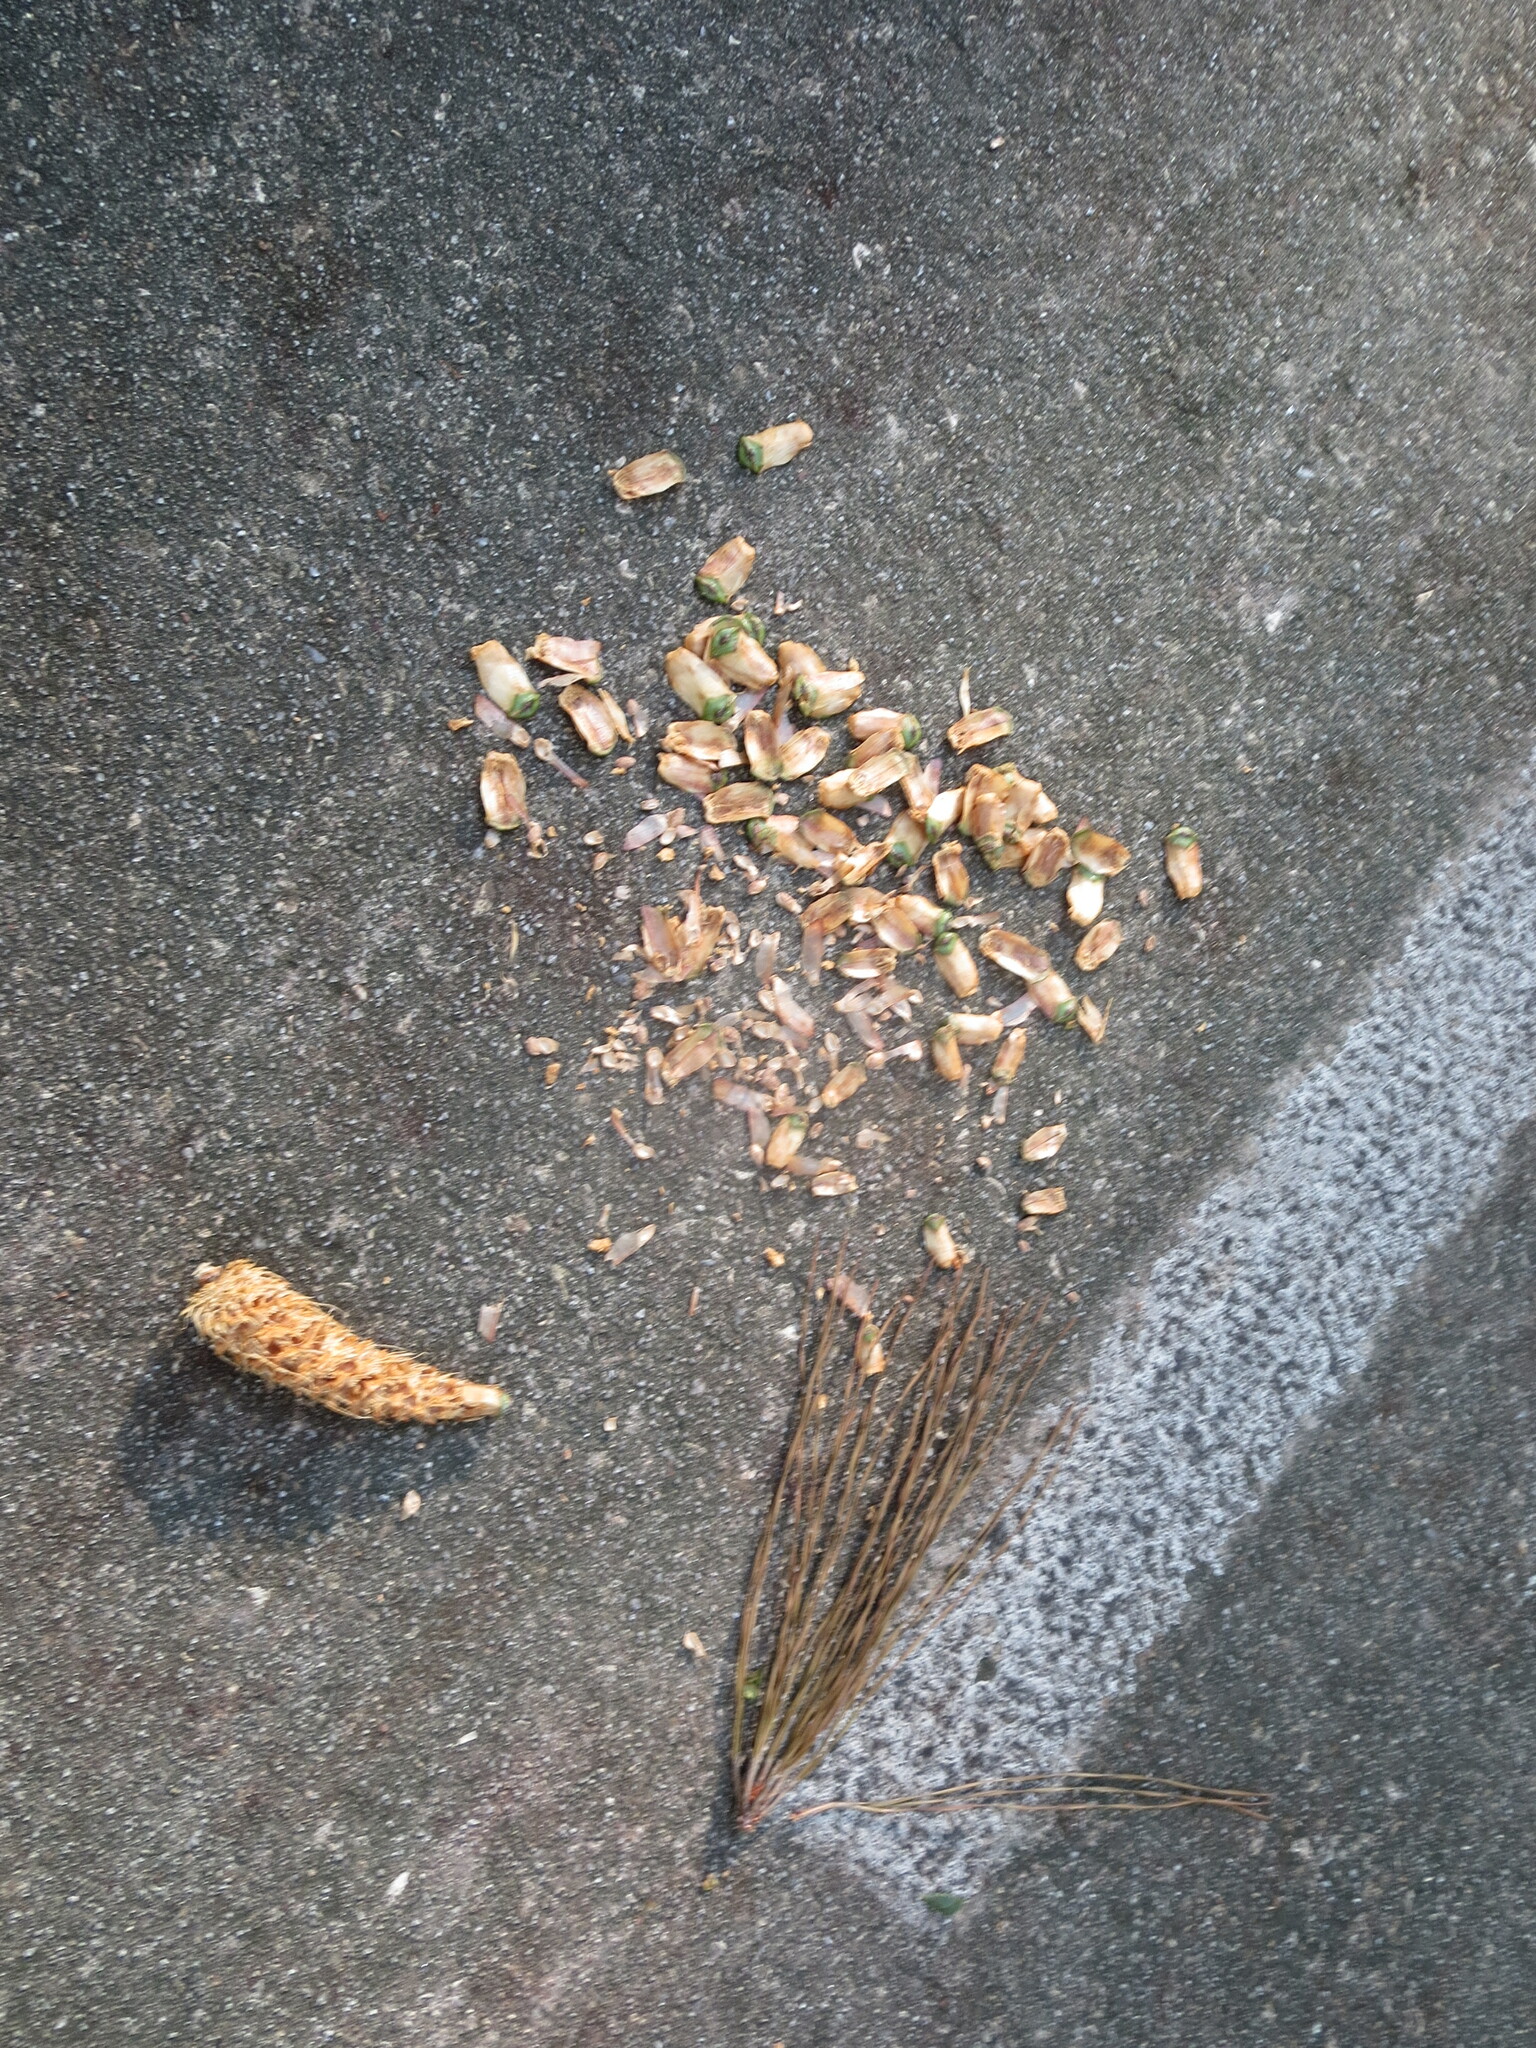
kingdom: Animalia
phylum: Chordata
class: Mammalia
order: Rodentia
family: Sciuridae
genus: Sciurus
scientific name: Sciurus carolinensis
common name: Eastern gray squirrel
